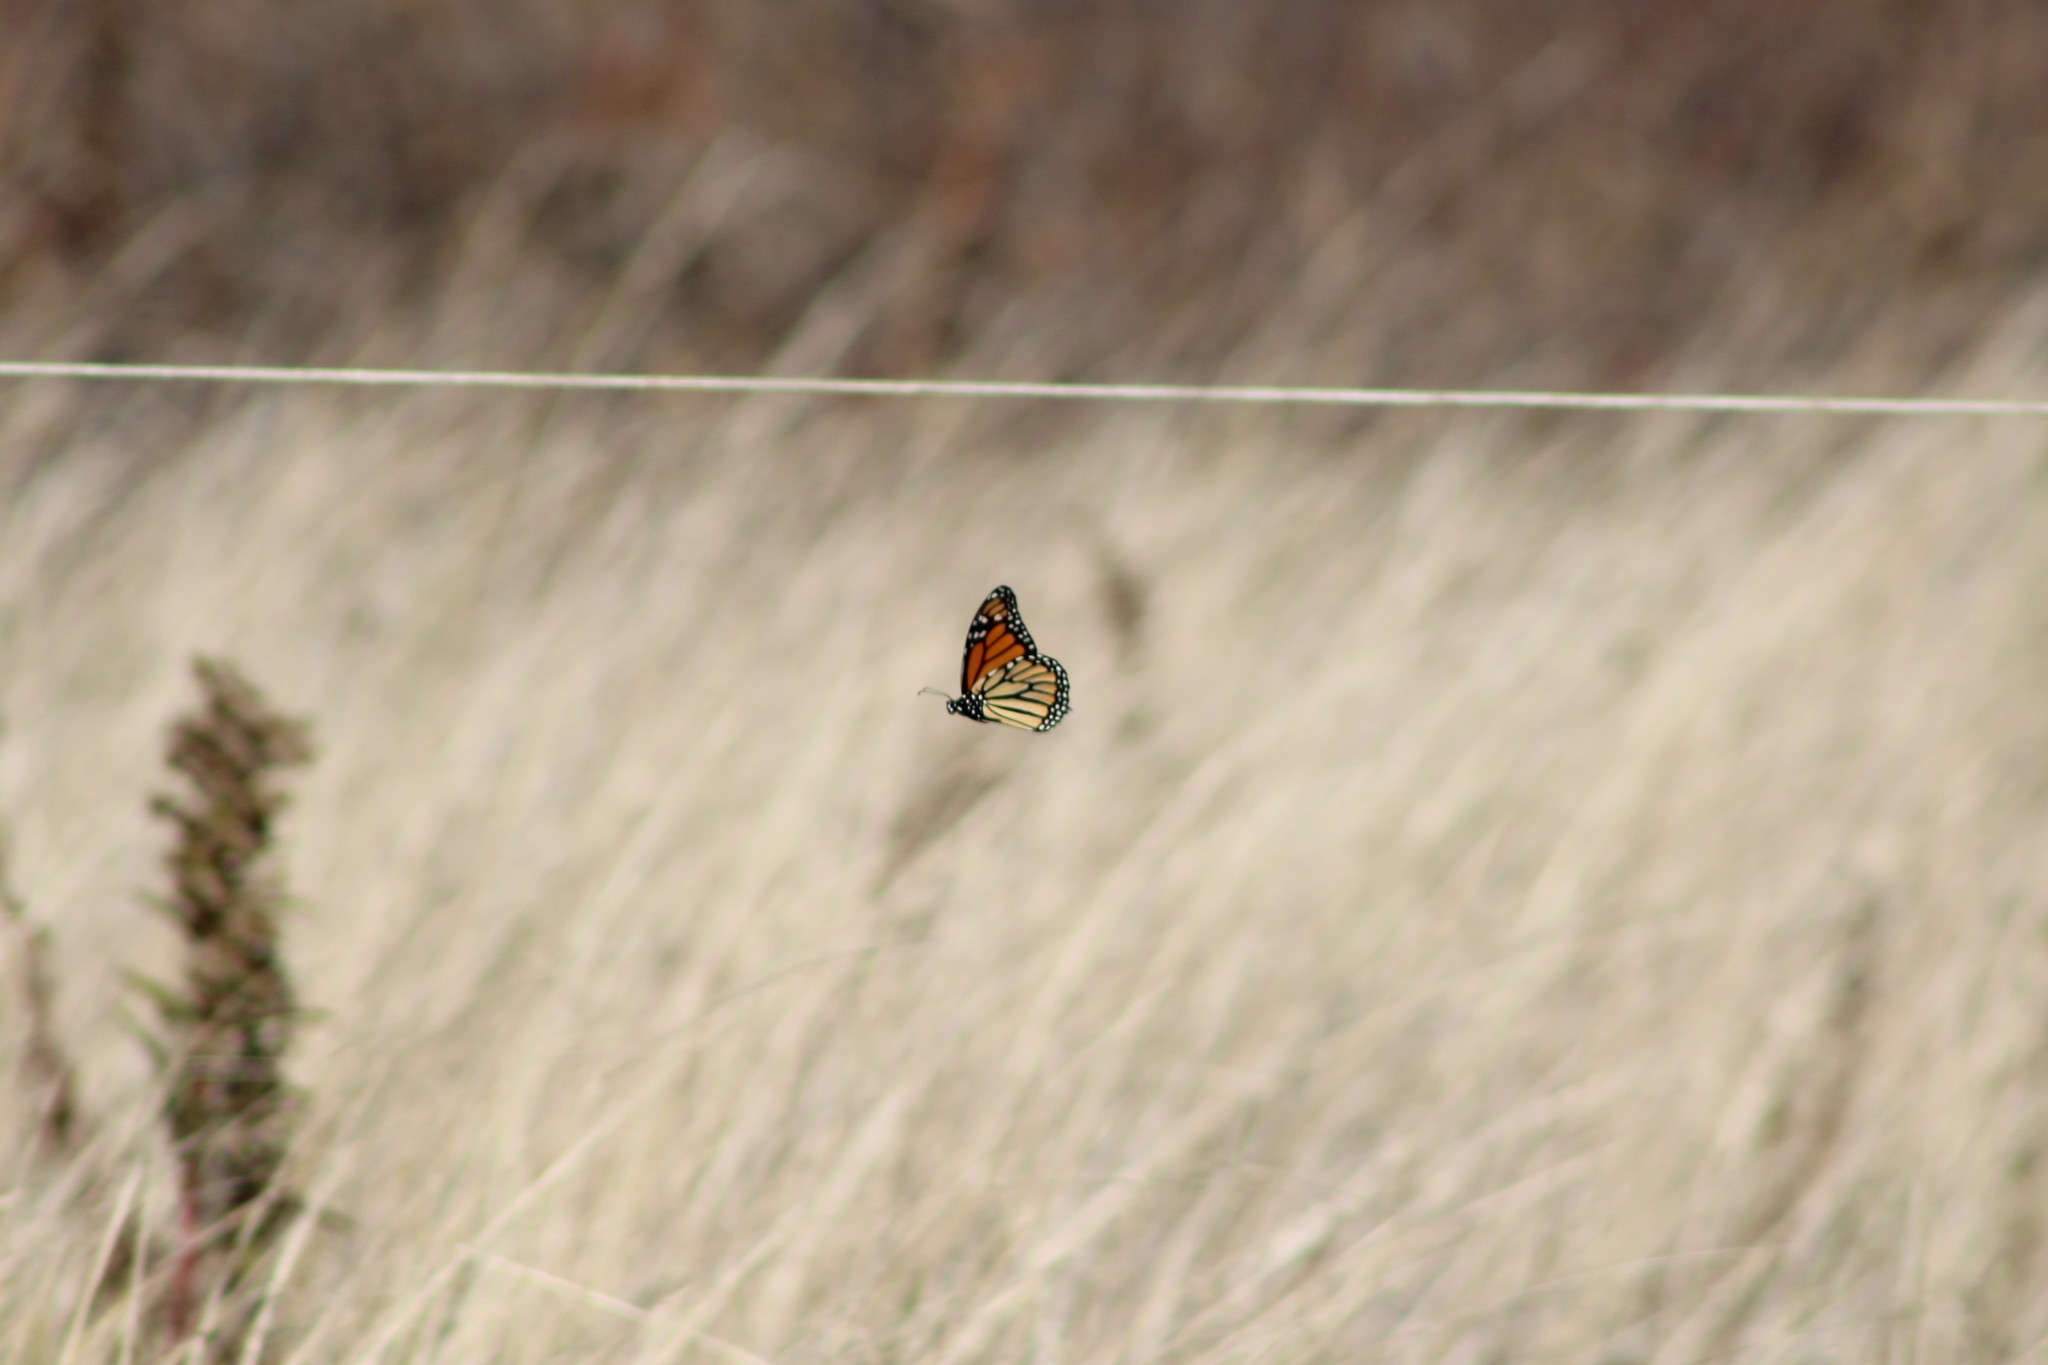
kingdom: Animalia
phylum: Arthropoda
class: Insecta
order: Lepidoptera
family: Nymphalidae
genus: Danaus
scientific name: Danaus plexippus
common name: Monarch
